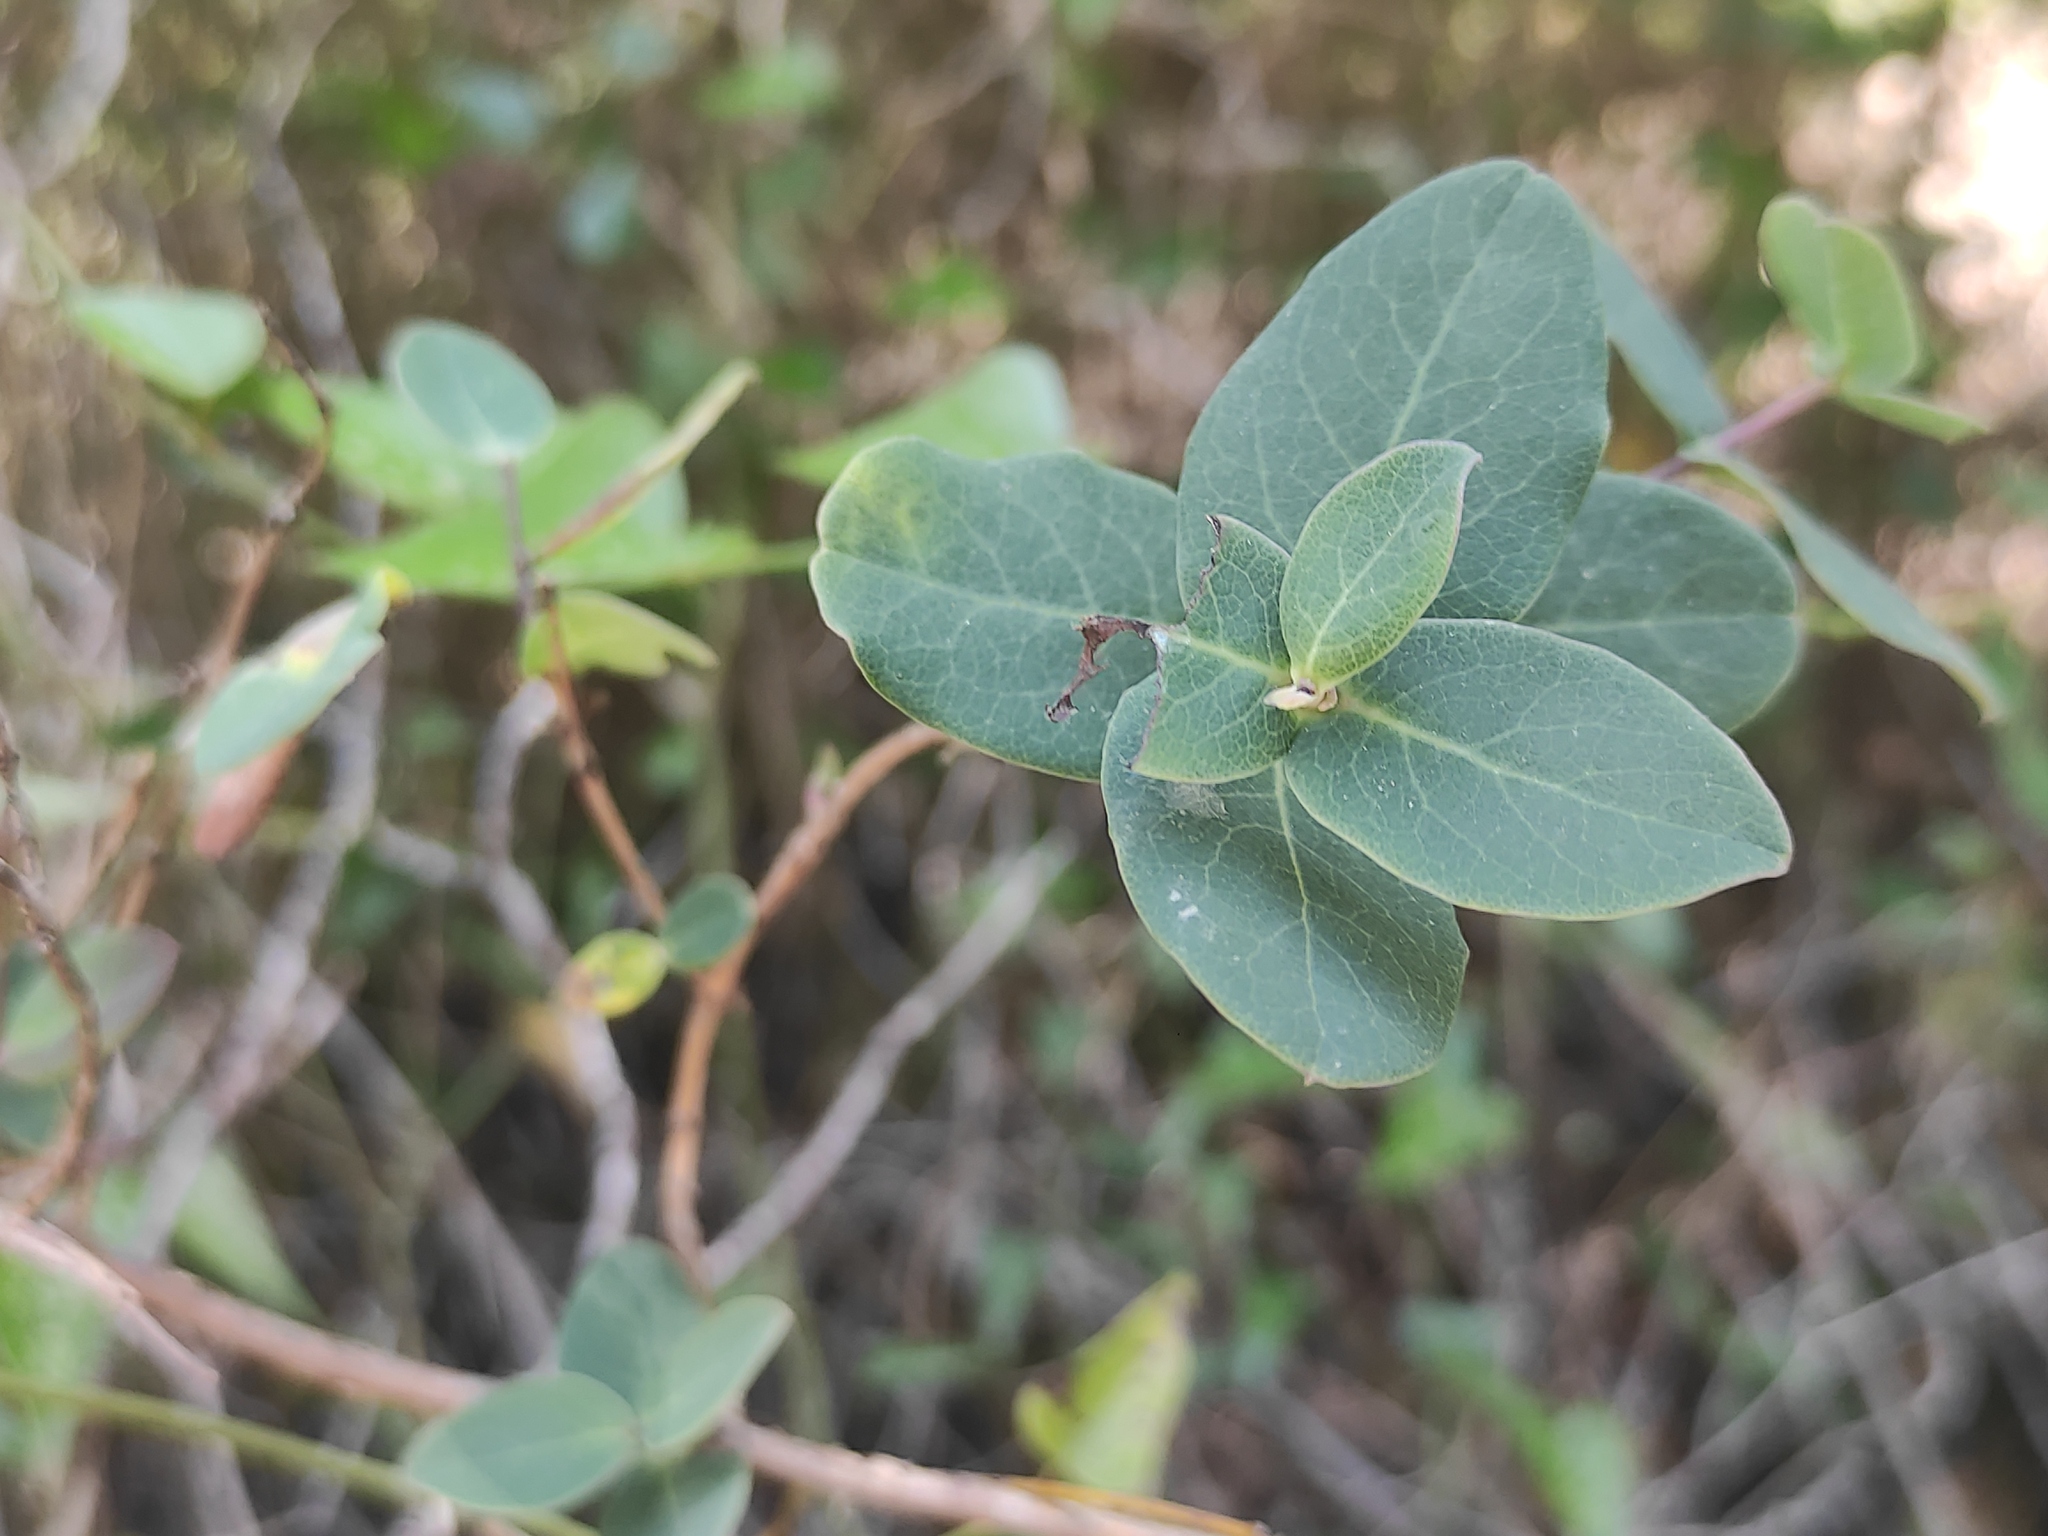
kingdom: Plantae
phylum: Tracheophyta
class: Magnoliopsida
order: Dipsacales
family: Caprifoliaceae
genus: Lonicera
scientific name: Lonicera implexa
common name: Minorca honeysuckle
